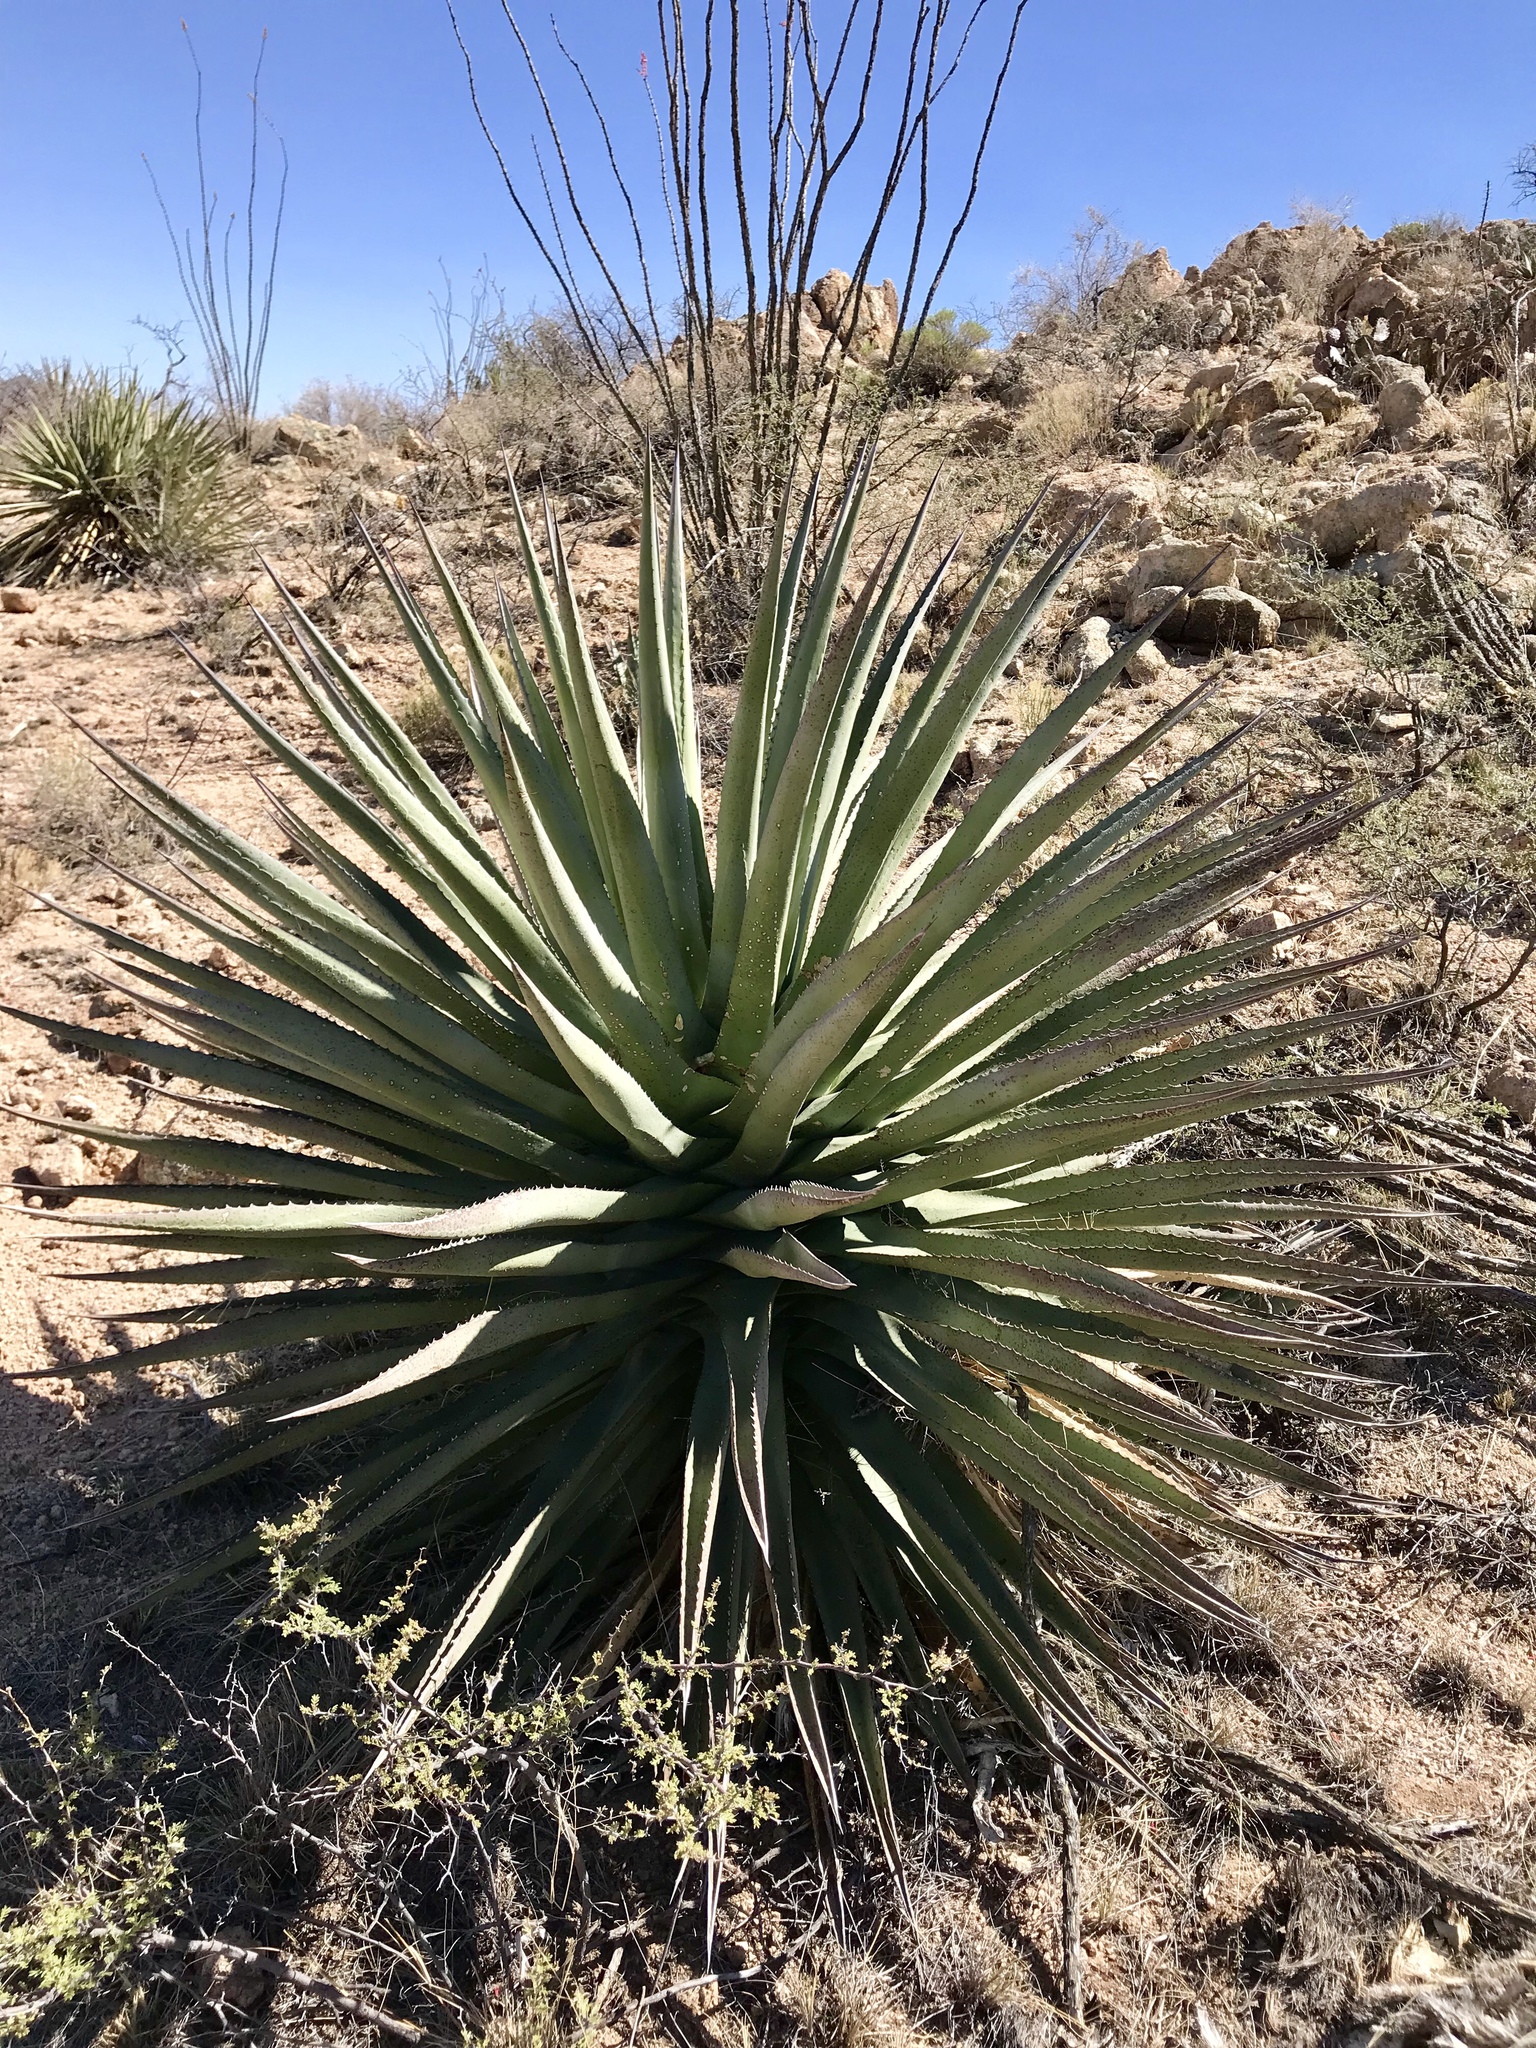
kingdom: Plantae
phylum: Tracheophyta
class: Liliopsida
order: Asparagales
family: Asparagaceae
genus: Agave
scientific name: Agave palmeri
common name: Palmer agave
